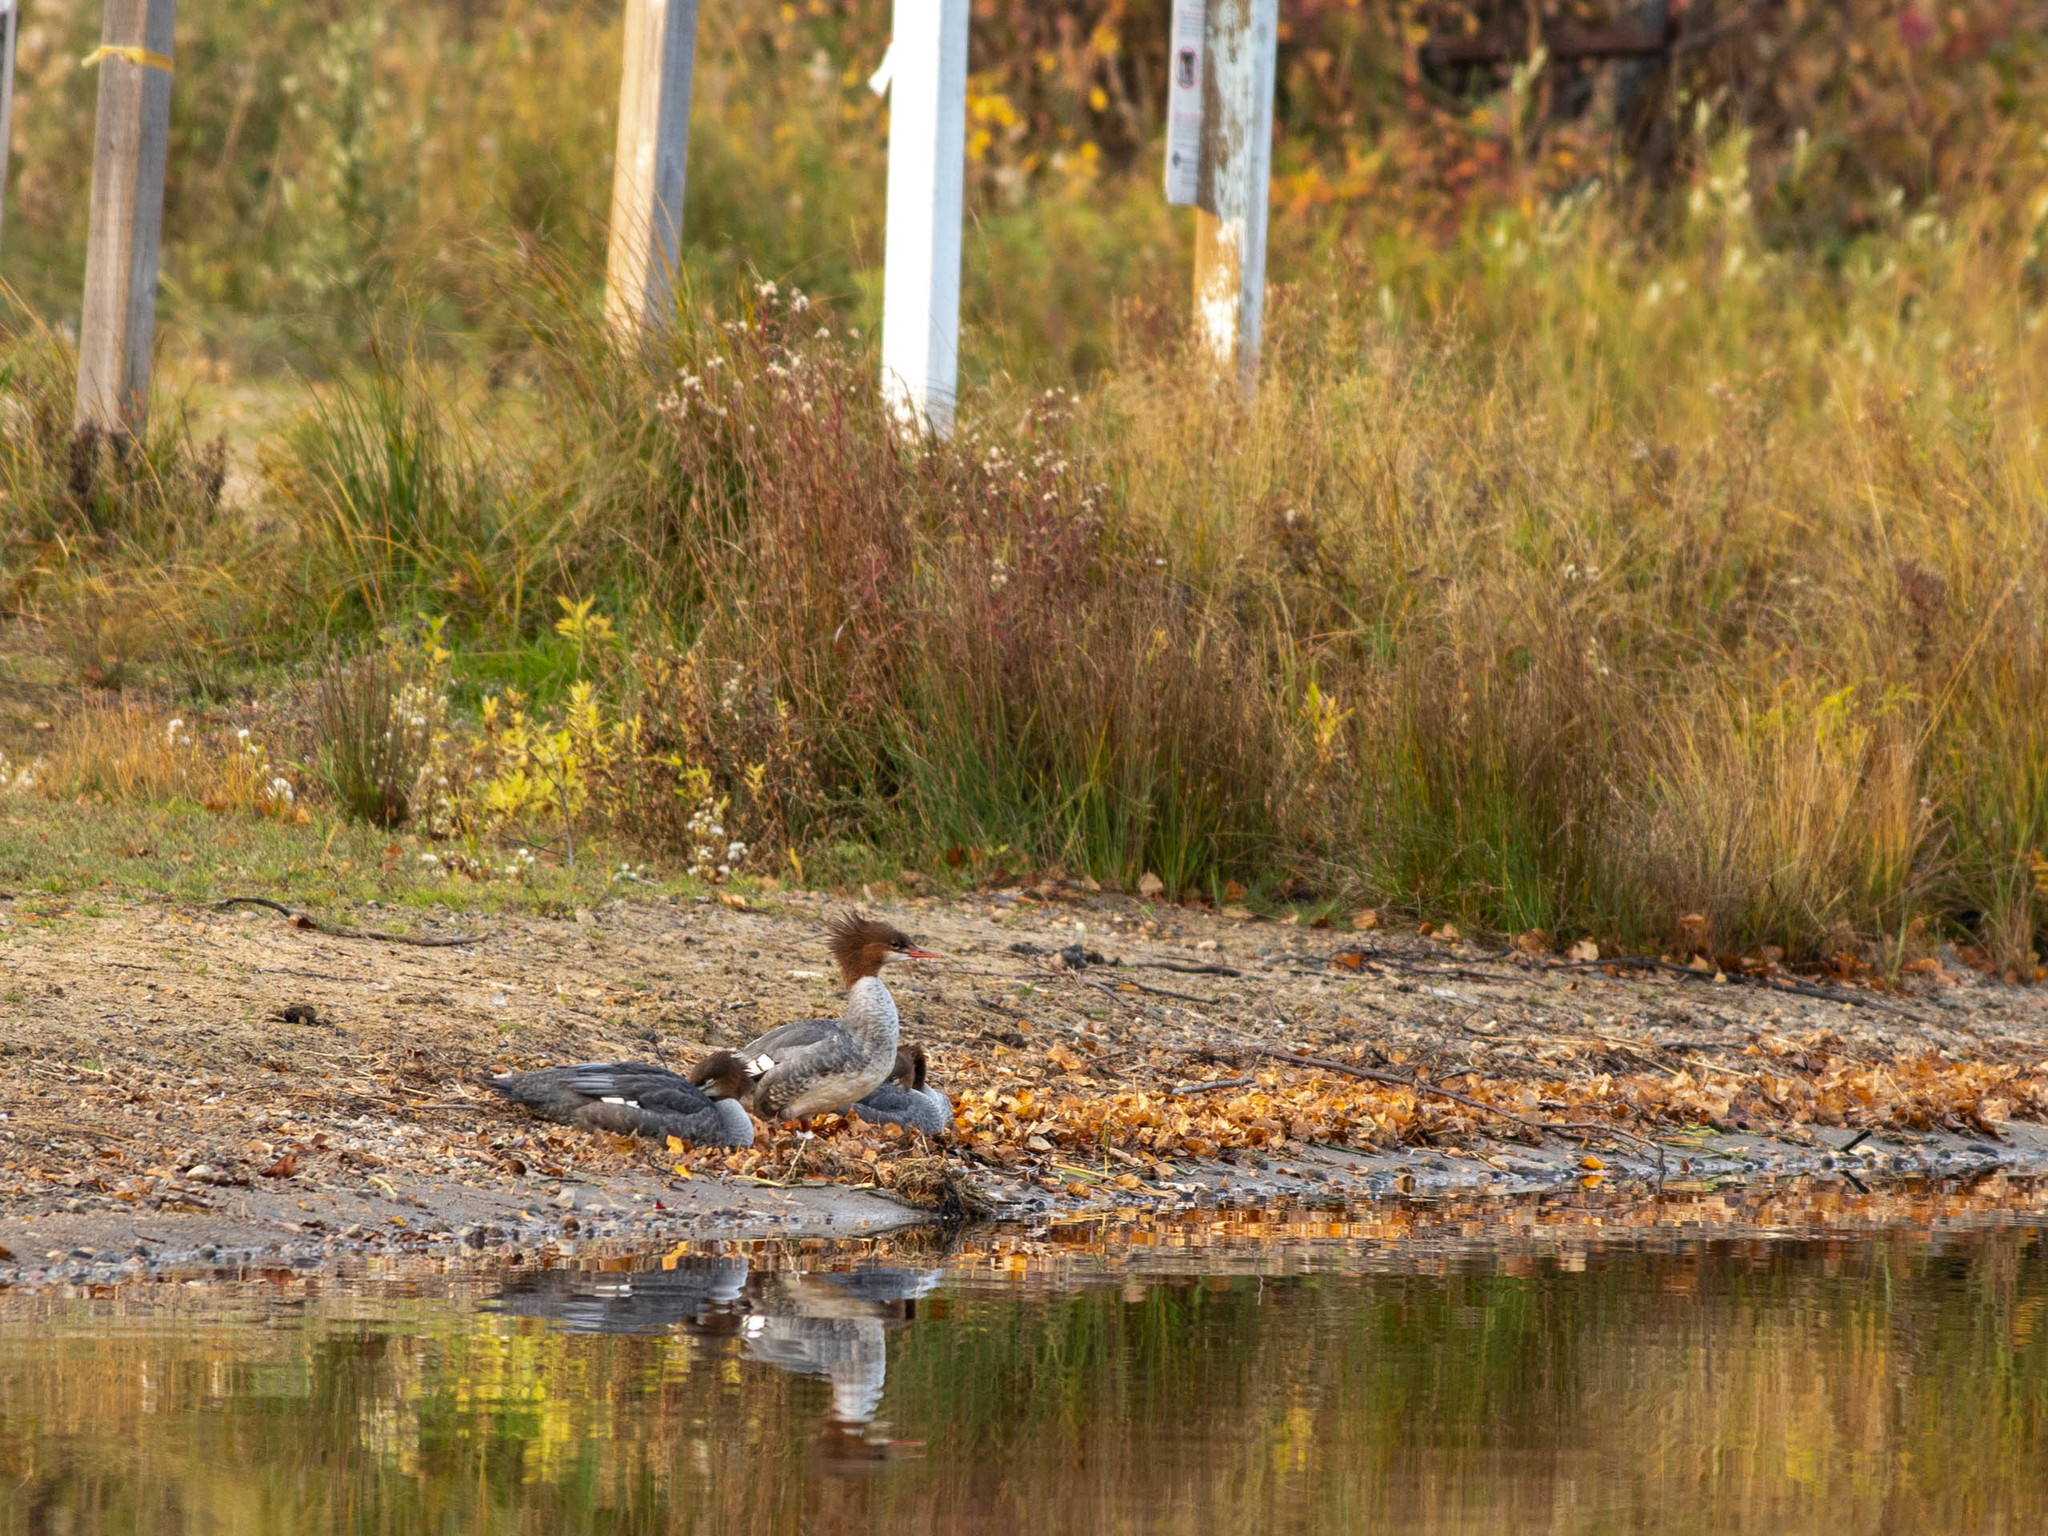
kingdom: Animalia
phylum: Chordata
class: Aves
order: Anseriformes
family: Anatidae
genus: Mergus
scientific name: Mergus merganser
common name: Common merganser
